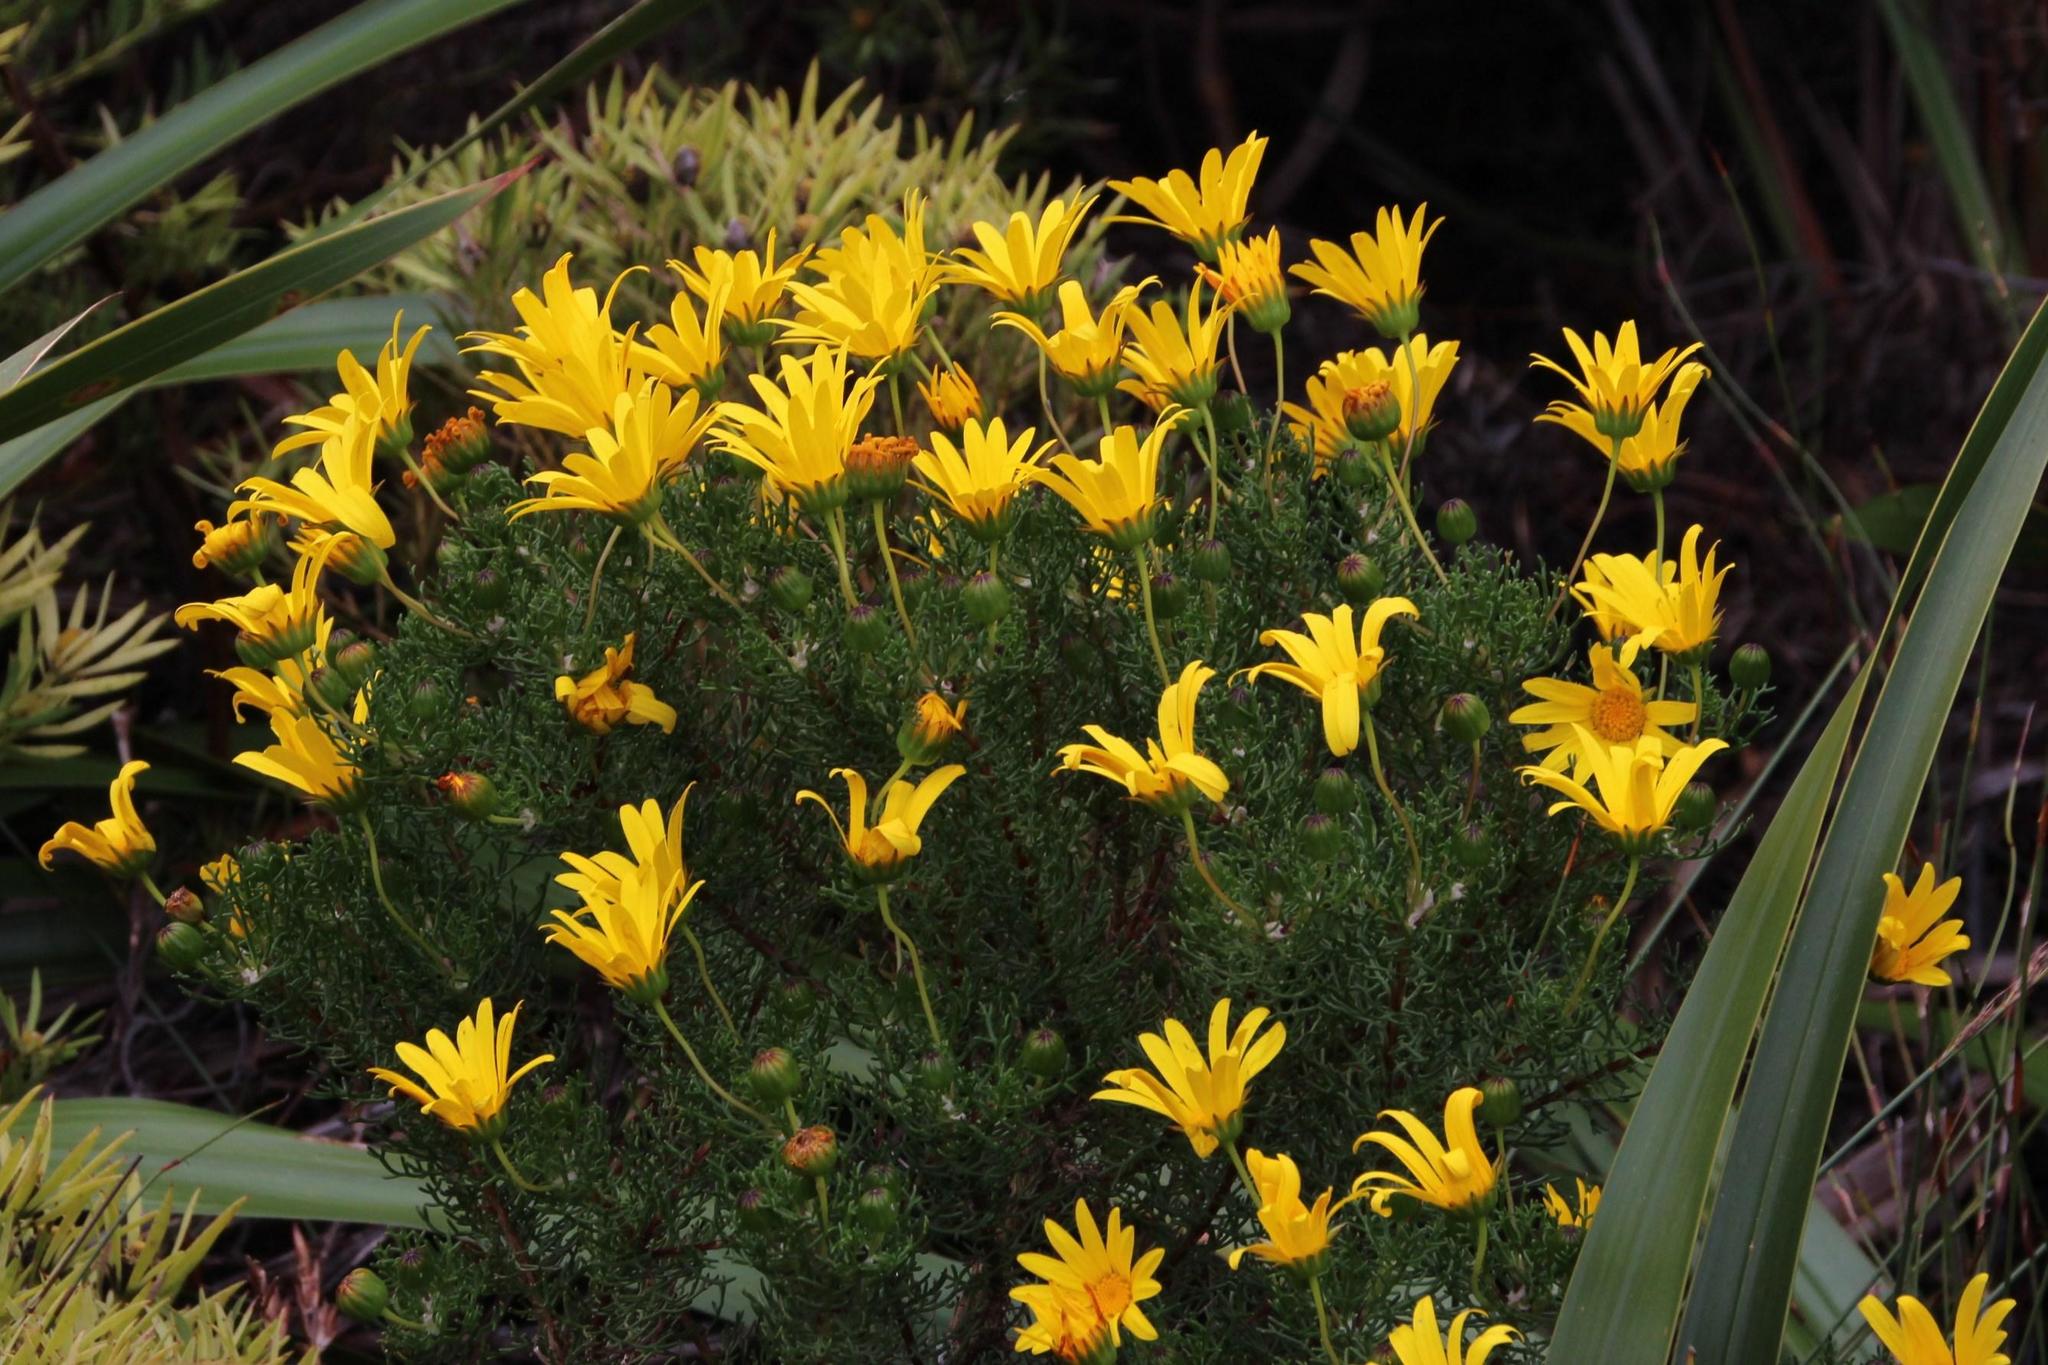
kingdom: Plantae
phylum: Tracheophyta
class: Magnoliopsida
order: Asterales
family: Asteraceae
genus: Euryops
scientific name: Euryops abrotanifolius
